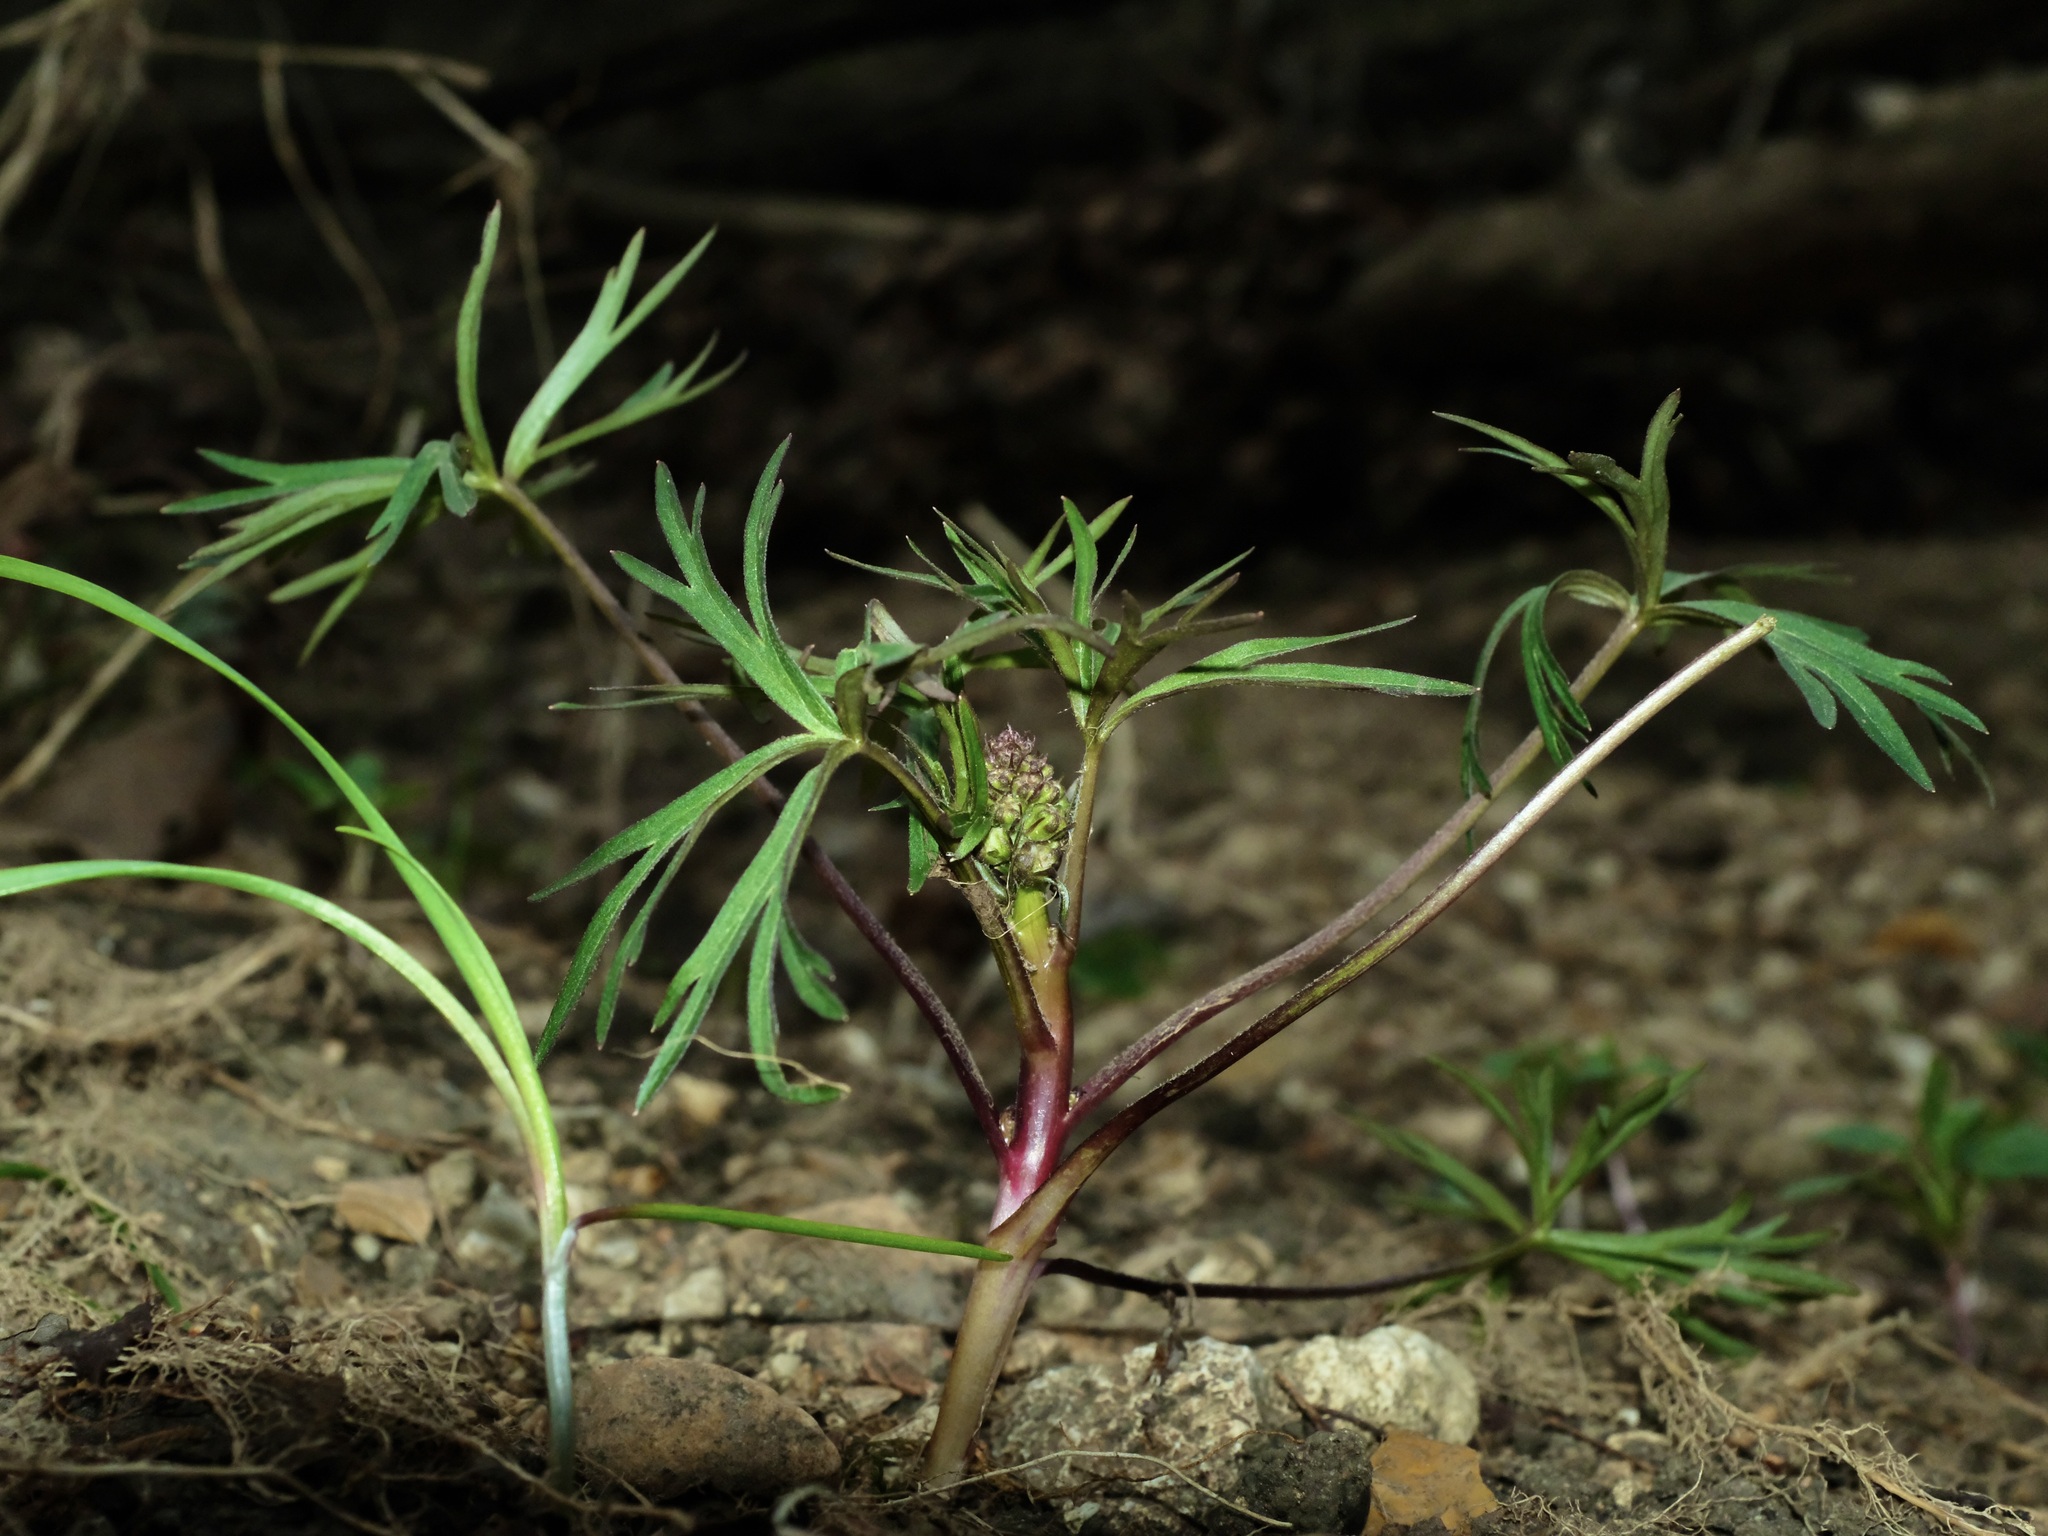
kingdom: Plantae
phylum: Tracheophyta
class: Magnoliopsida
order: Ranunculales
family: Ranunculaceae
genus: Delphinium
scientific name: Delphinium tricorne
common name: Dwarf larkspur
